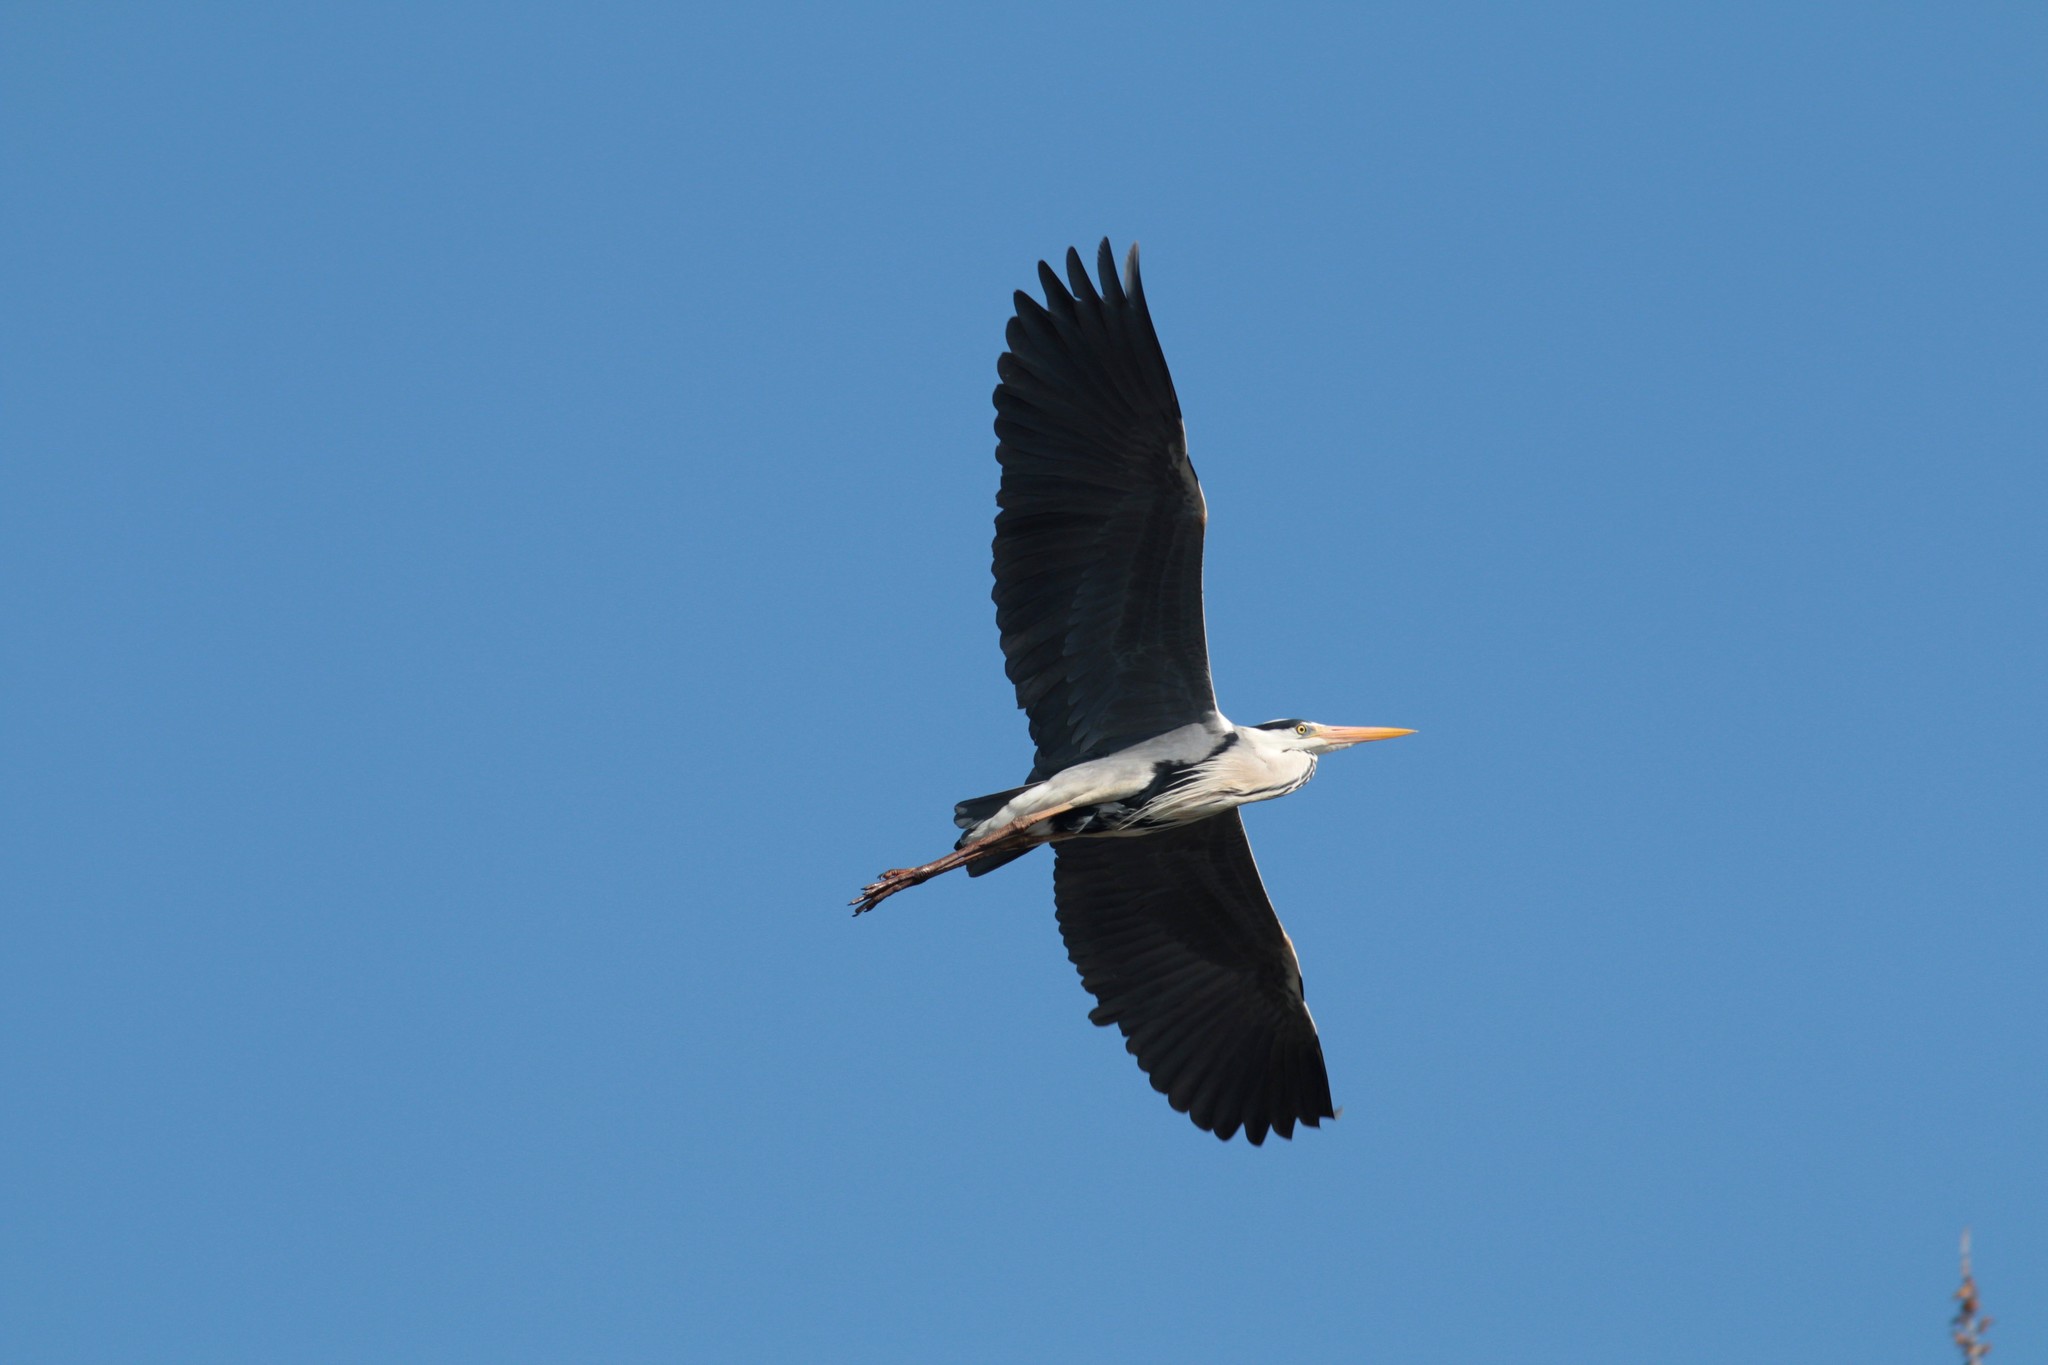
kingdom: Animalia
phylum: Chordata
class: Aves
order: Pelecaniformes
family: Ardeidae
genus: Ardea
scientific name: Ardea cinerea
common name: Grey heron
